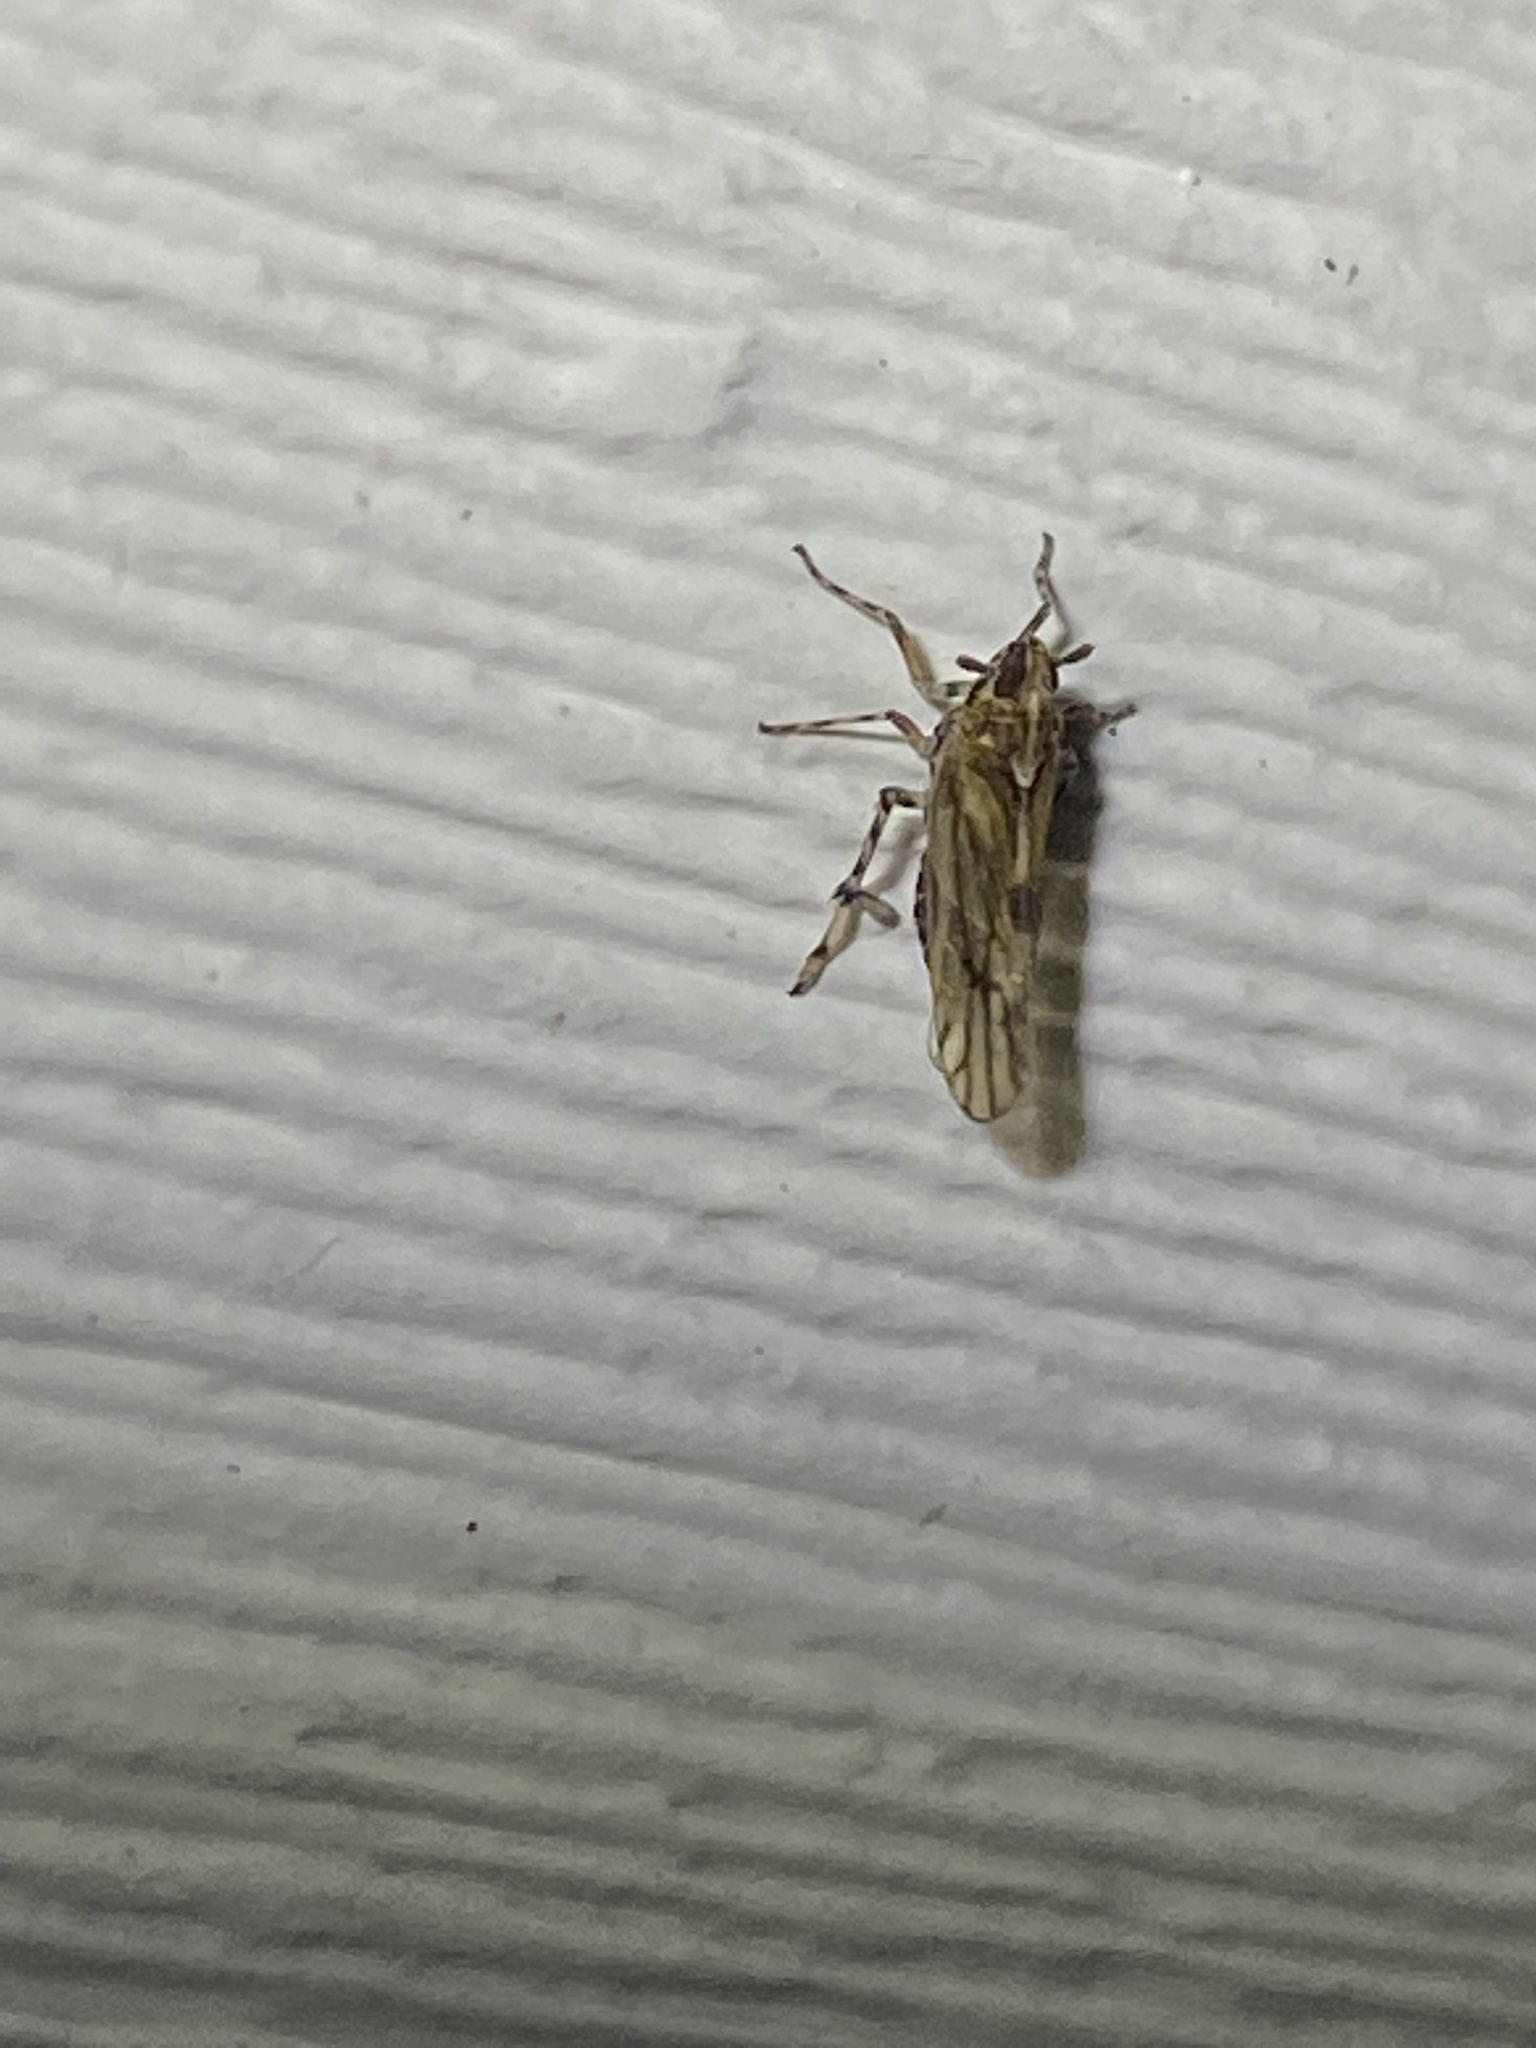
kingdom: Animalia
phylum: Arthropoda
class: Insecta
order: Hemiptera
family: Delphacidae
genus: Megamelus
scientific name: Megamelus palaetus
